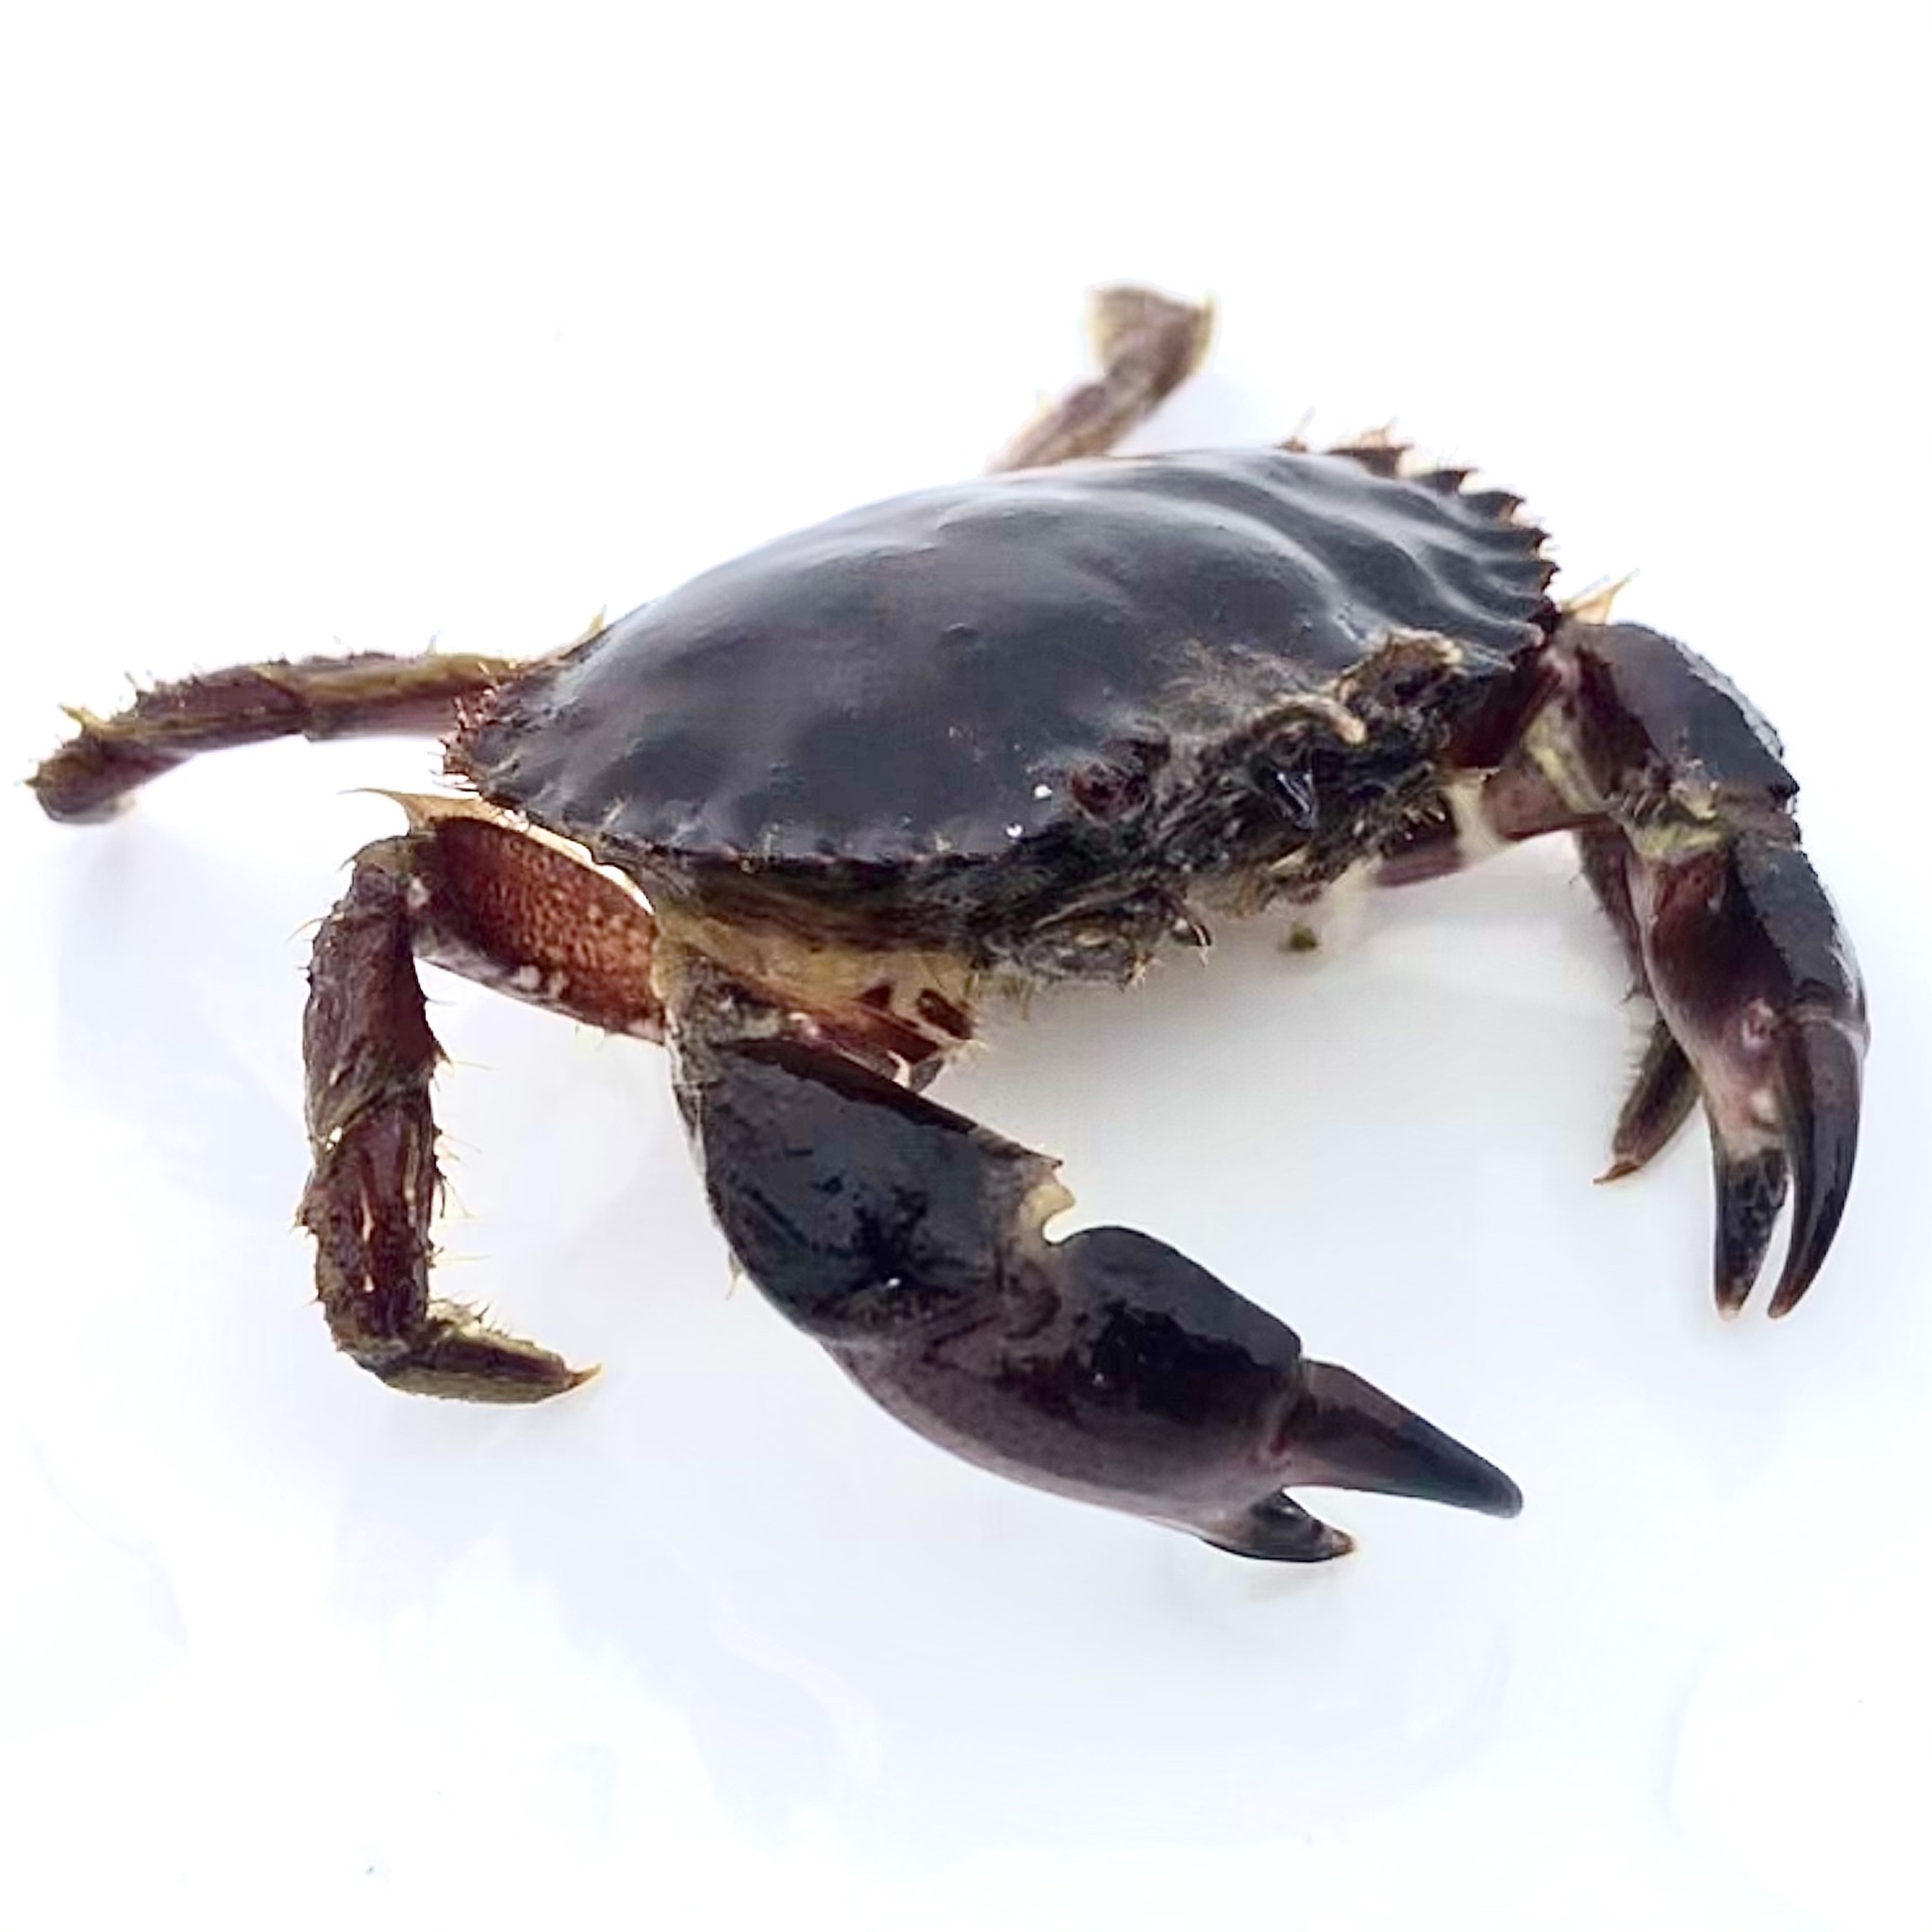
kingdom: Animalia
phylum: Arthropoda
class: Malacostraca
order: Decapoda
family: Cancridae
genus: Romaleon
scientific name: Romaleon antennarium
